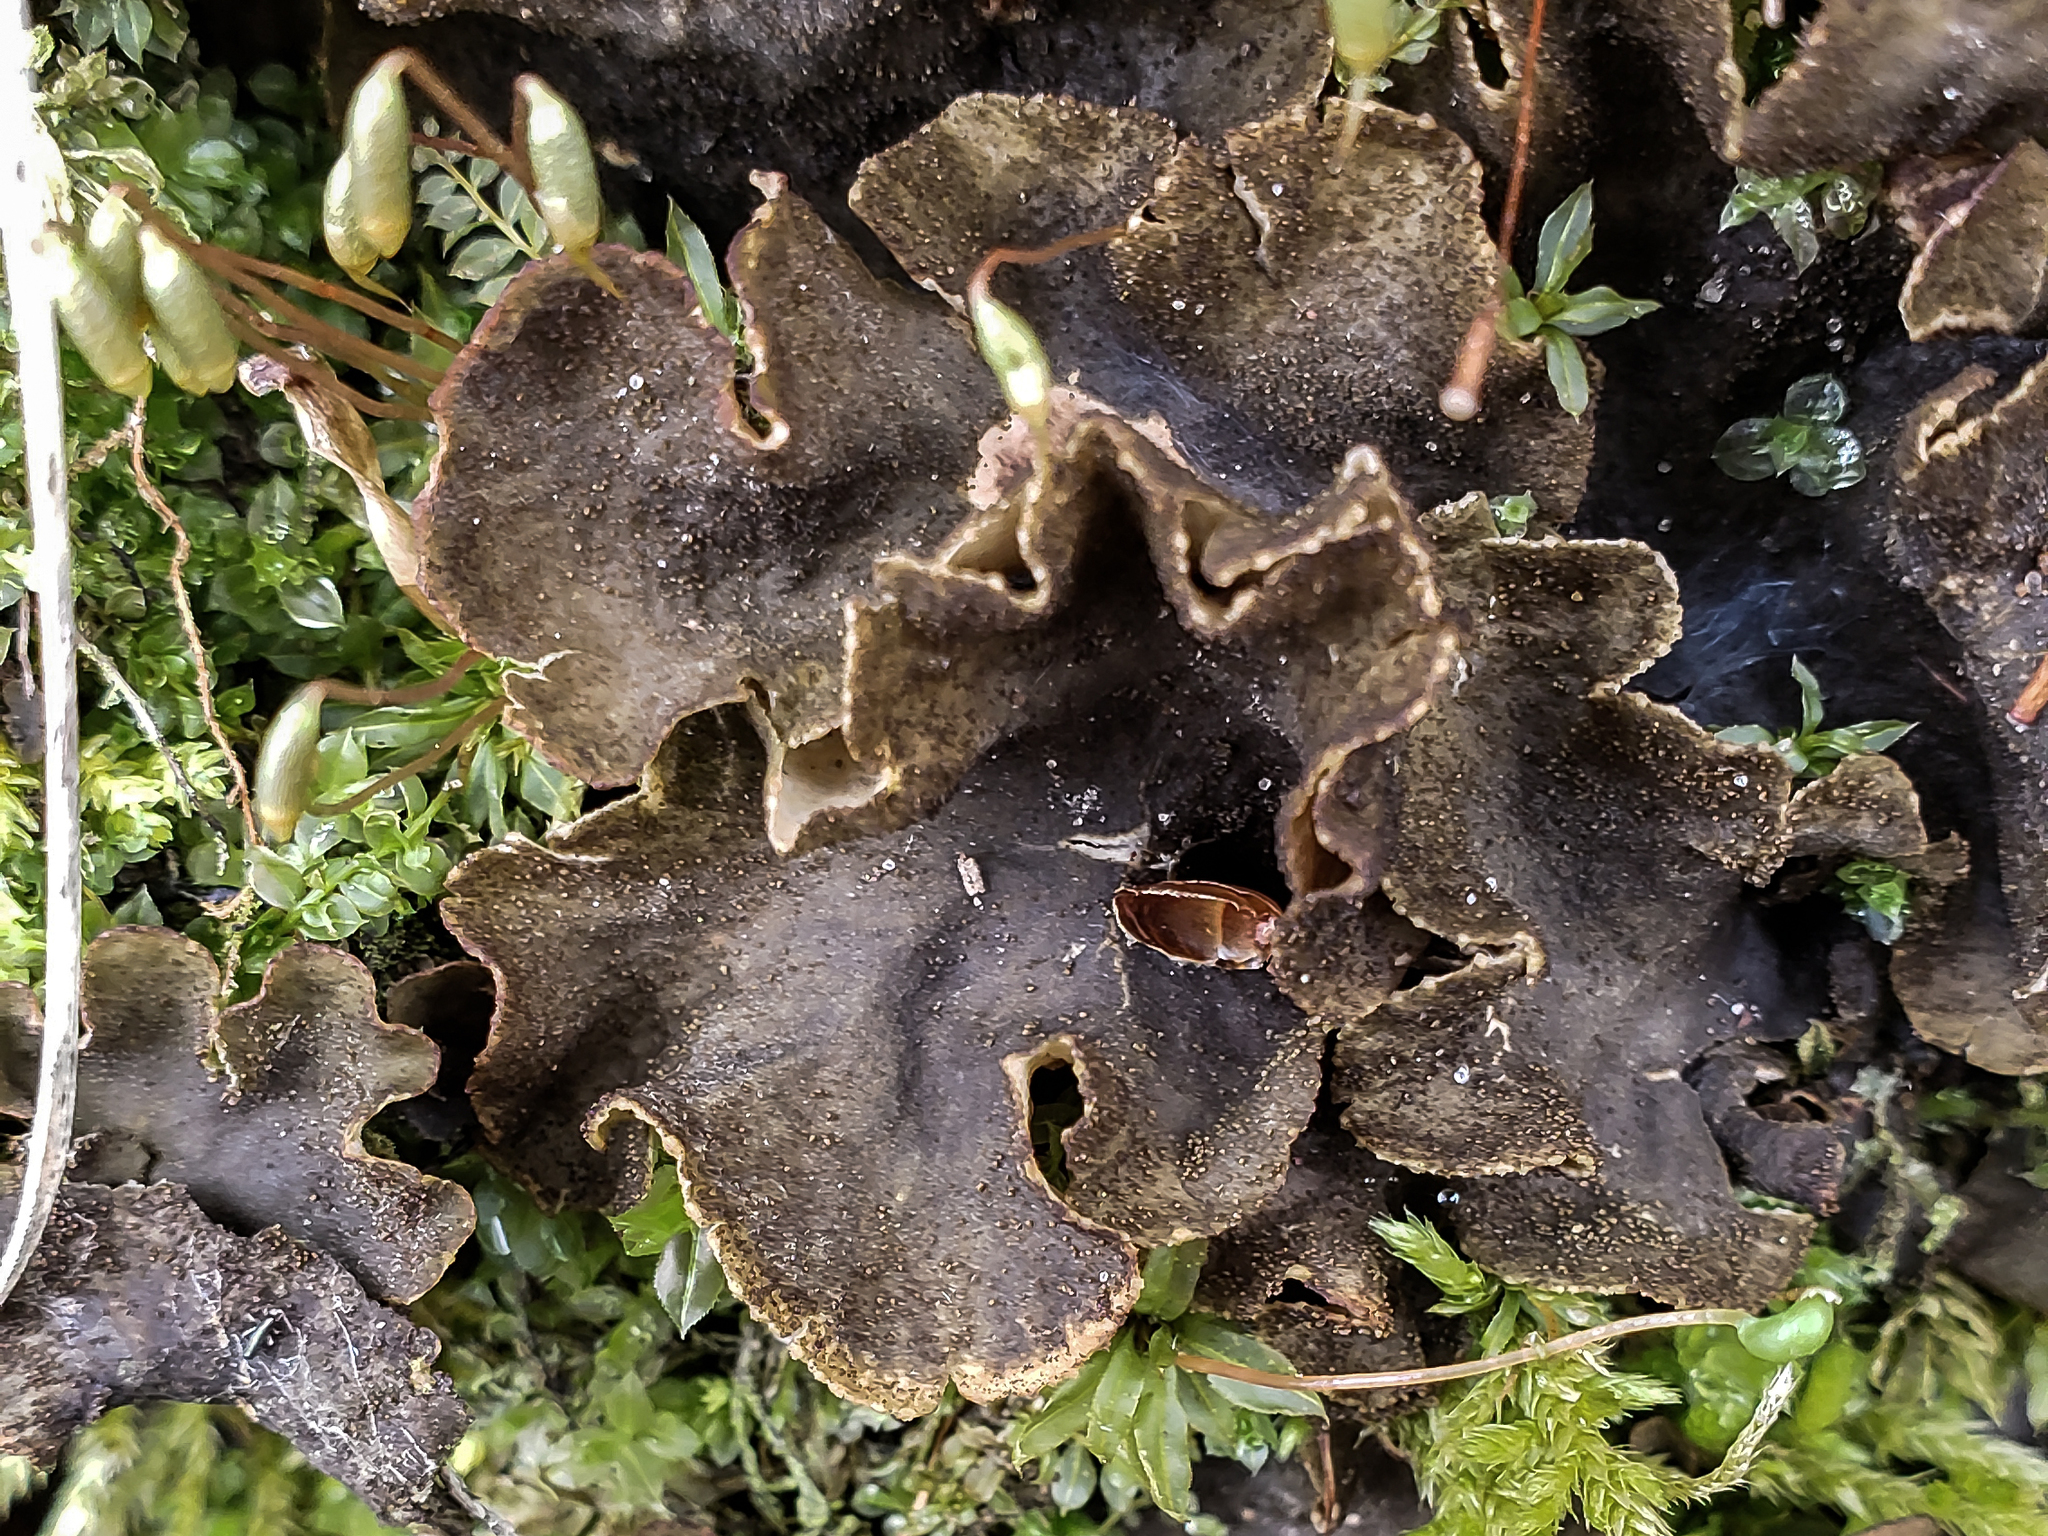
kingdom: Fungi
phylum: Ascomycota
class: Lecanoromycetes
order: Peltigerales
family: Peltigeraceae
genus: Peltigera
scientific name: Peltigera evansiana
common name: Peppered pelt lichen
